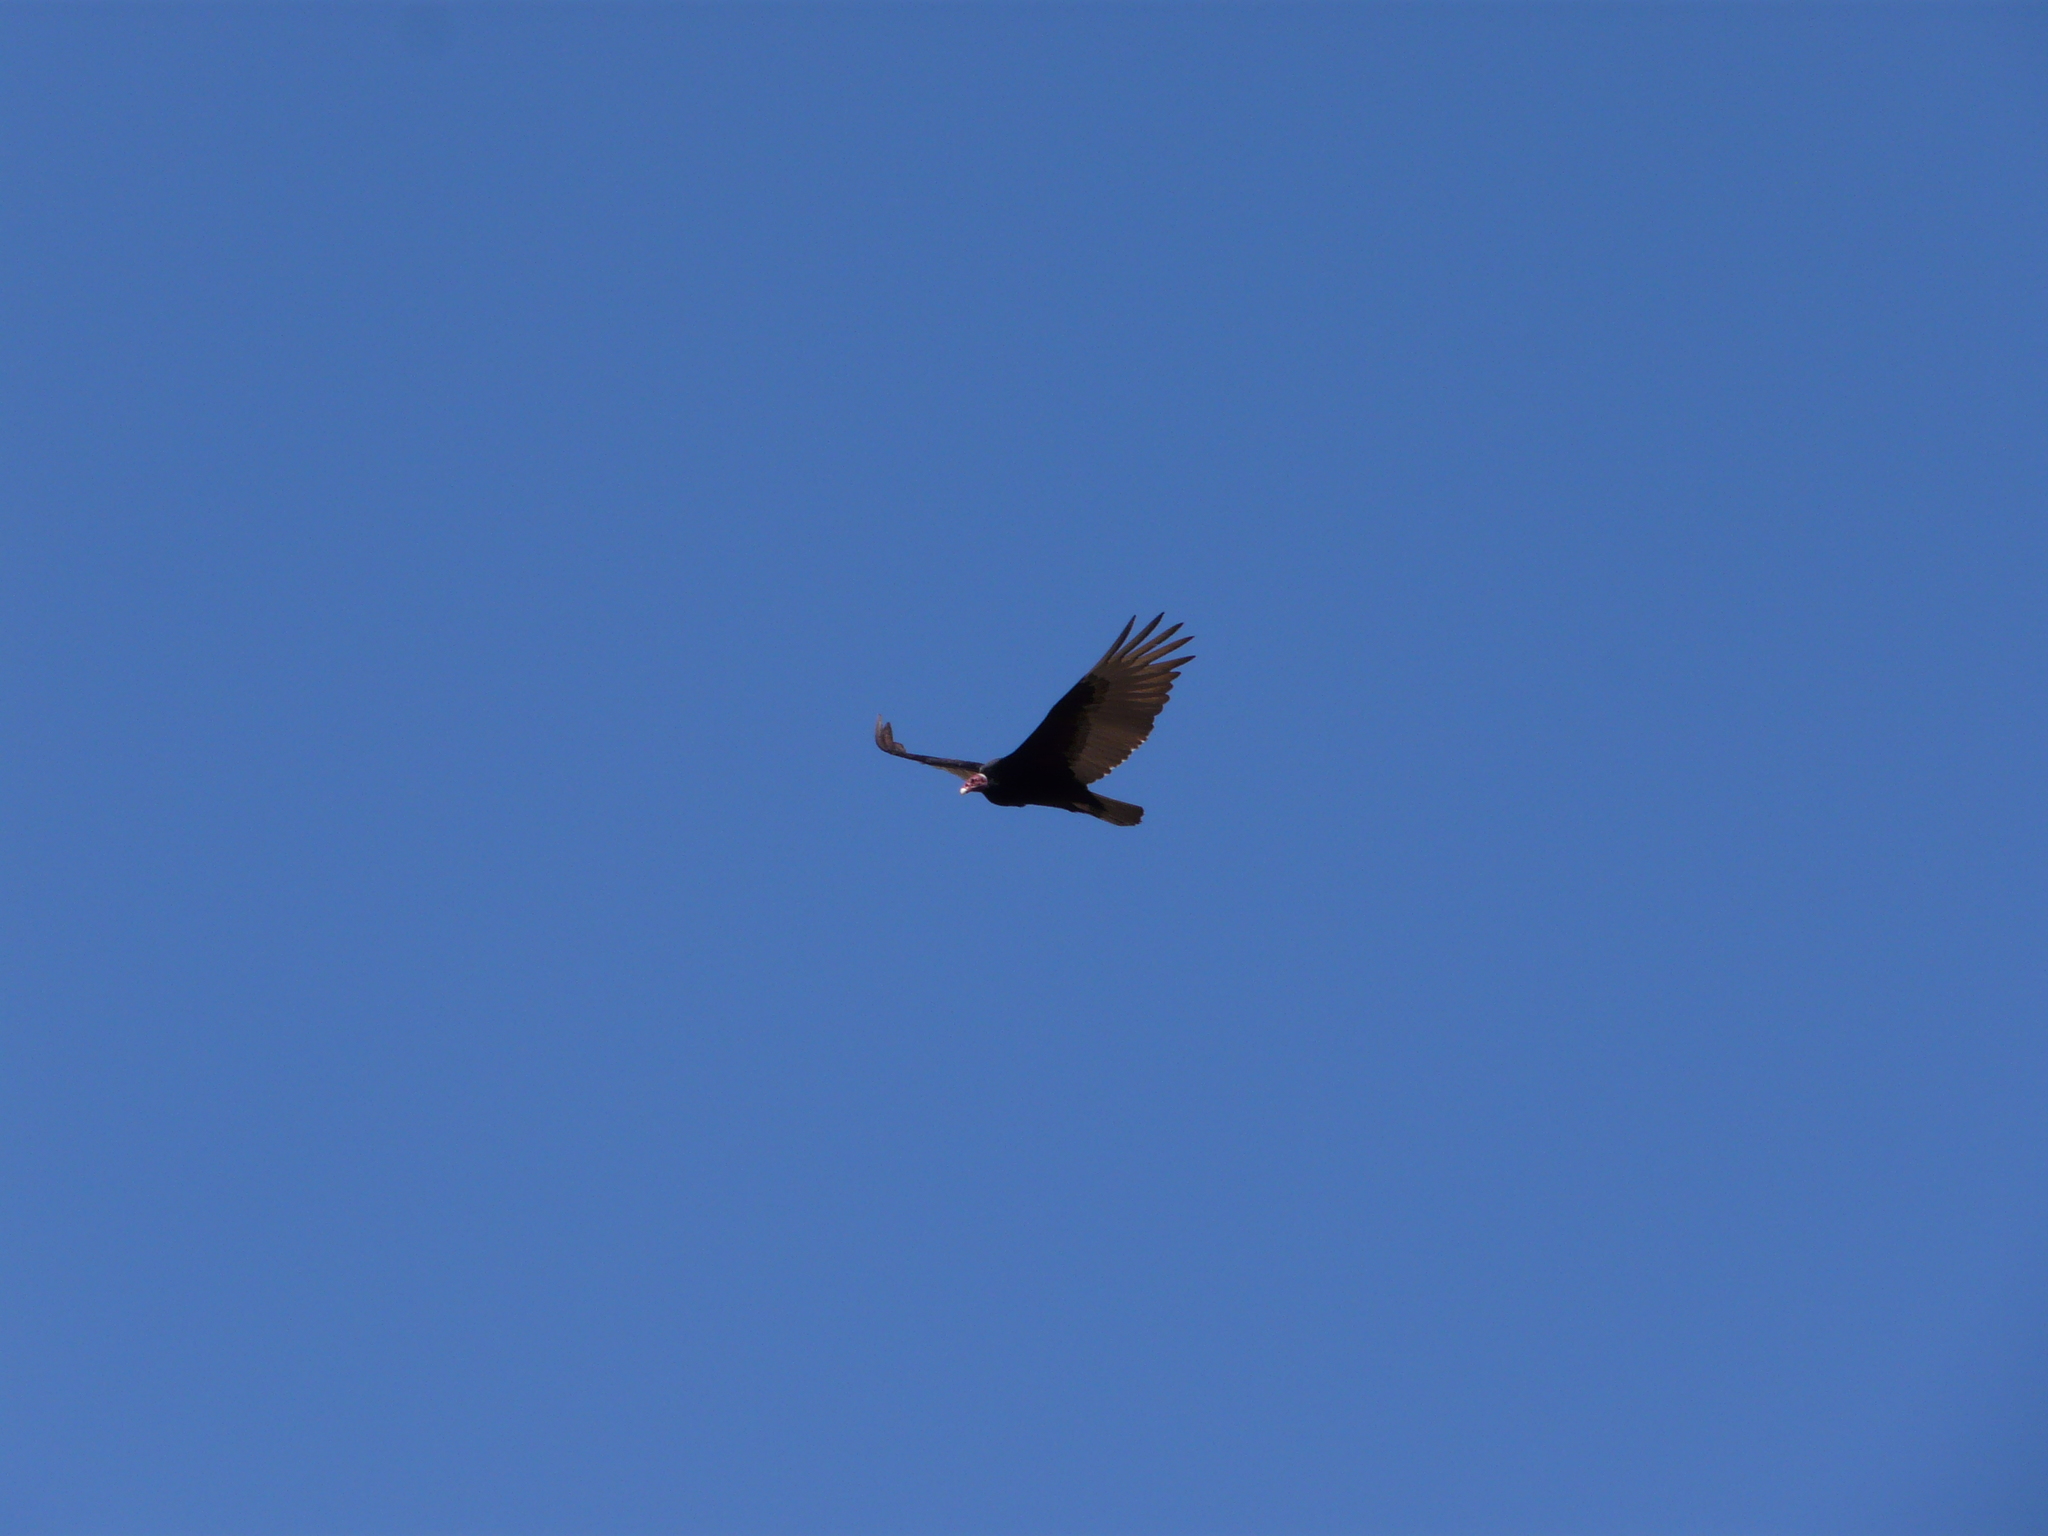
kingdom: Animalia
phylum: Chordata
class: Aves
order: Accipitriformes
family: Cathartidae
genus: Cathartes
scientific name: Cathartes aura
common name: Turkey vulture
